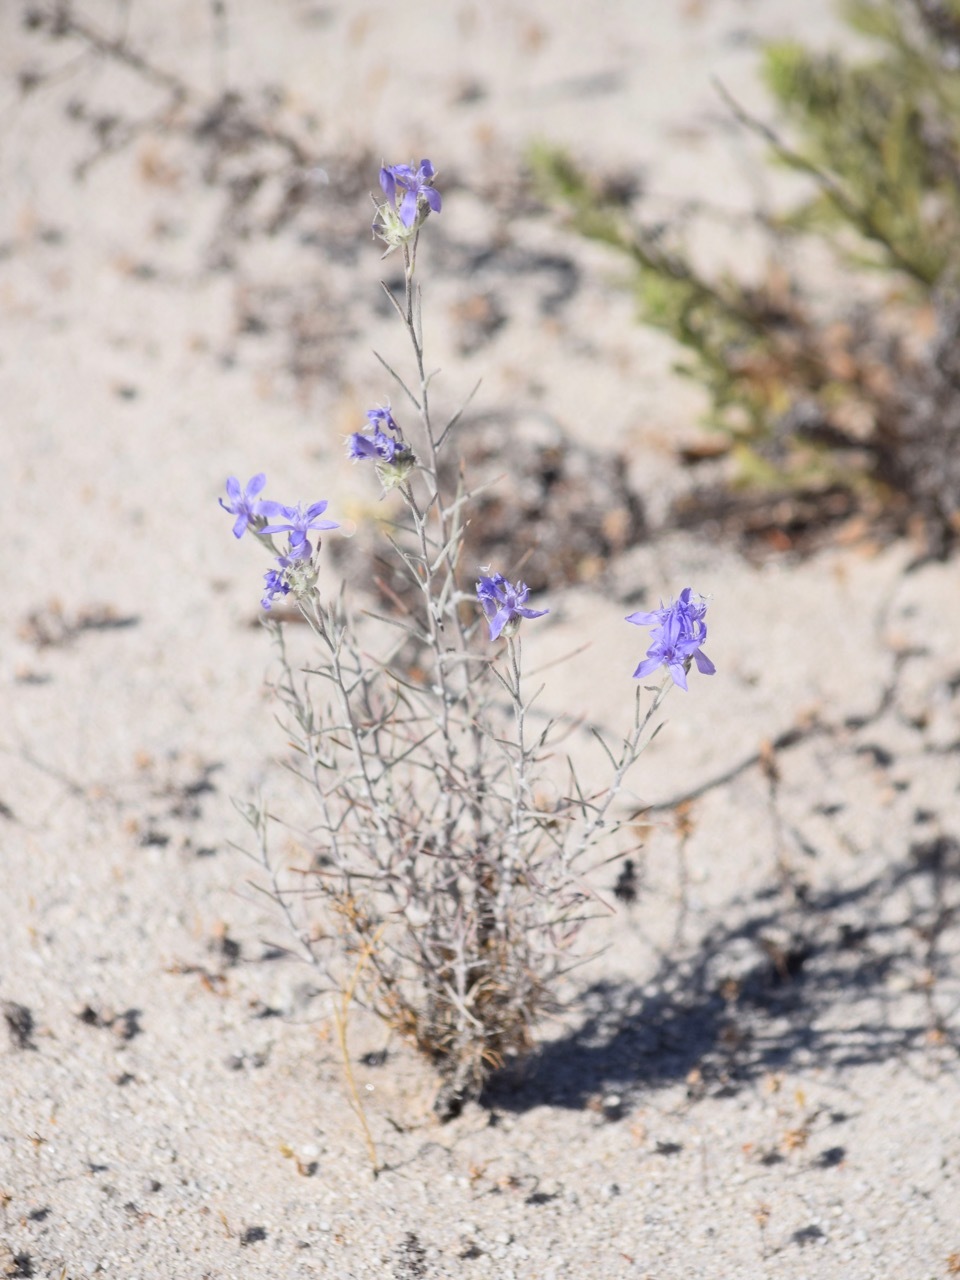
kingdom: Plantae
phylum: Tracheophyta
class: Magnoliopsida
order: Ericales
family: Polemoniaceae
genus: Eriastrum
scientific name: Eriastrum densifolium
